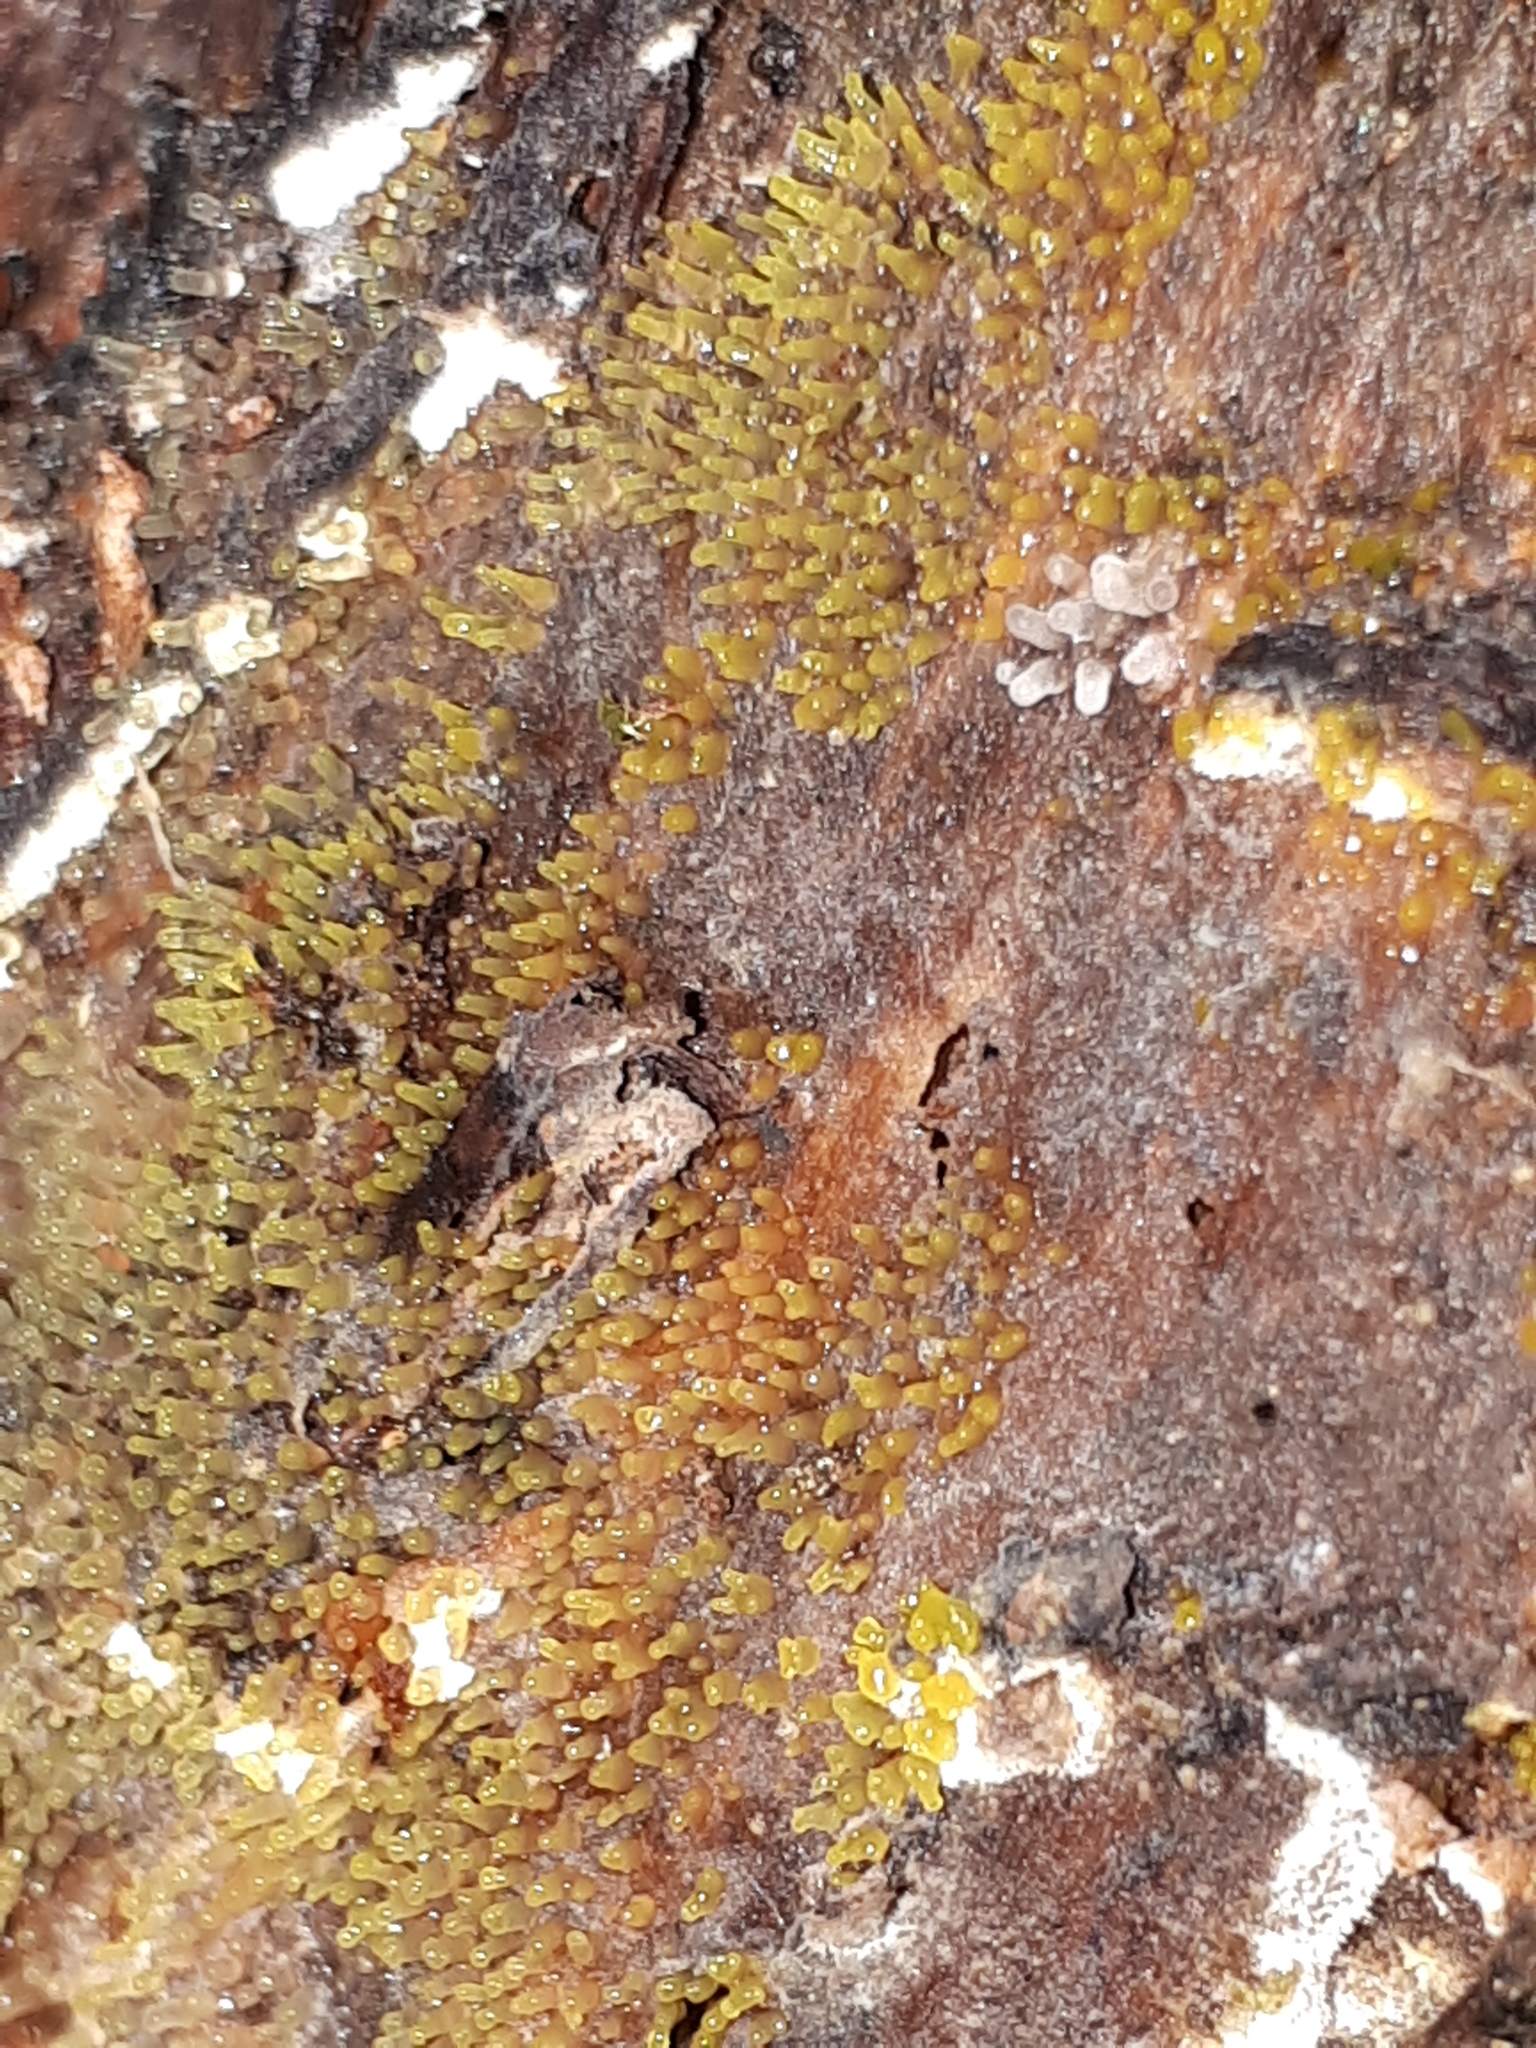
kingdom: Protozoa
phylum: Mycetozoa
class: Protosteliomycetes
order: Ceratiomyxales
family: Ceratiomyxaceae
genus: Ceratiomyxa
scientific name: Ceratiomyxa fruticulosa
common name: Honeycomb coral slime mold
